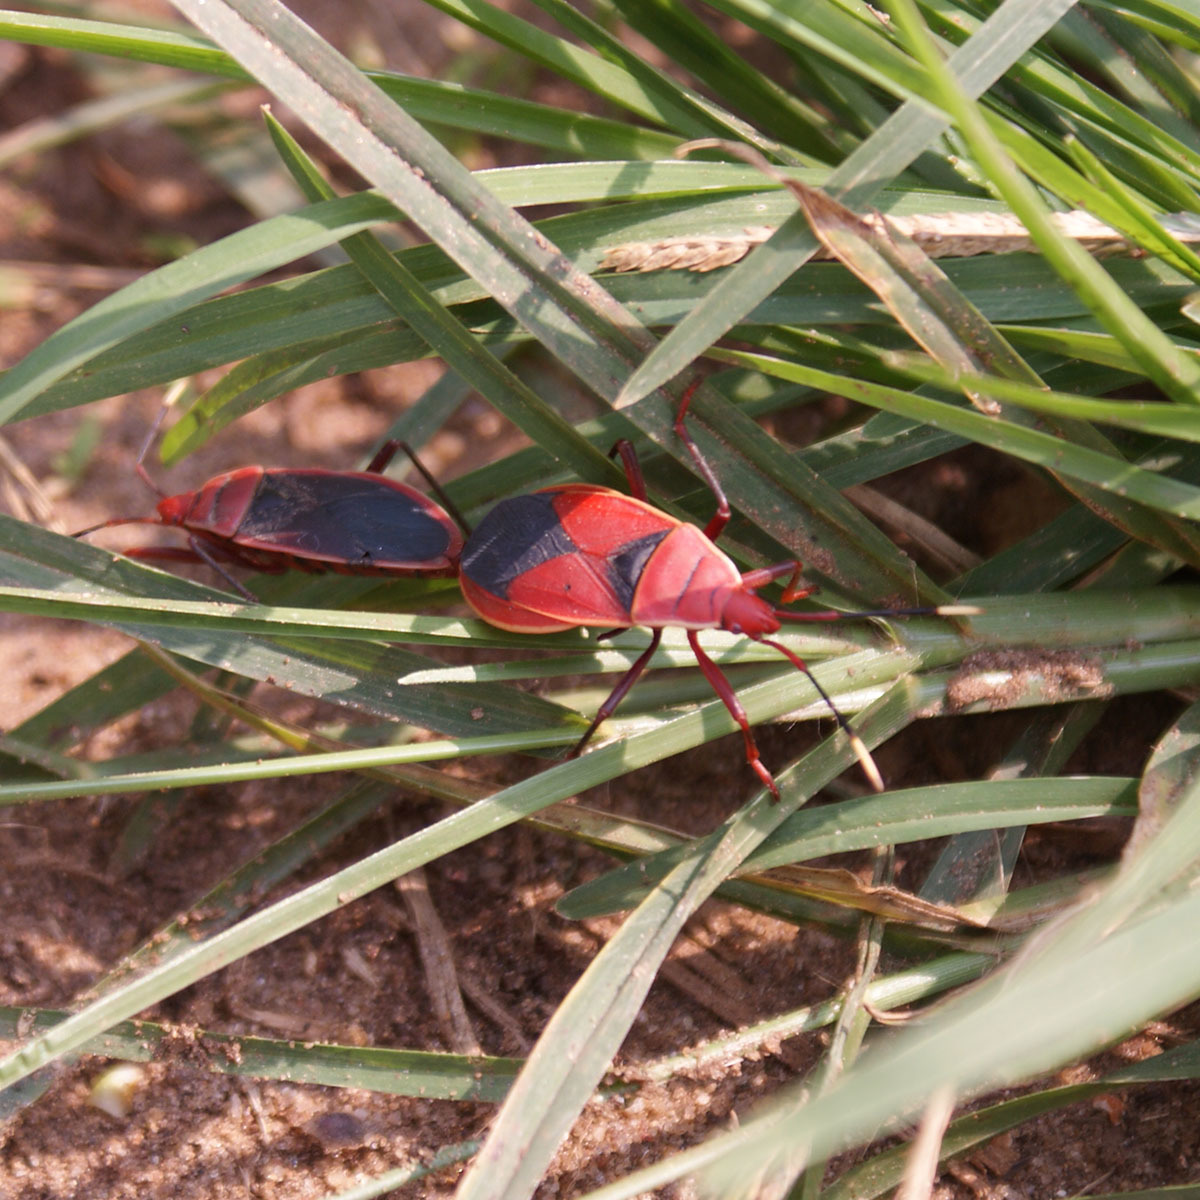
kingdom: Animalia
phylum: Arthropoda
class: Insecta
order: Hemiptera
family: Pyrrhocoridae
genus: Probergrothius
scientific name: Probergrothius
